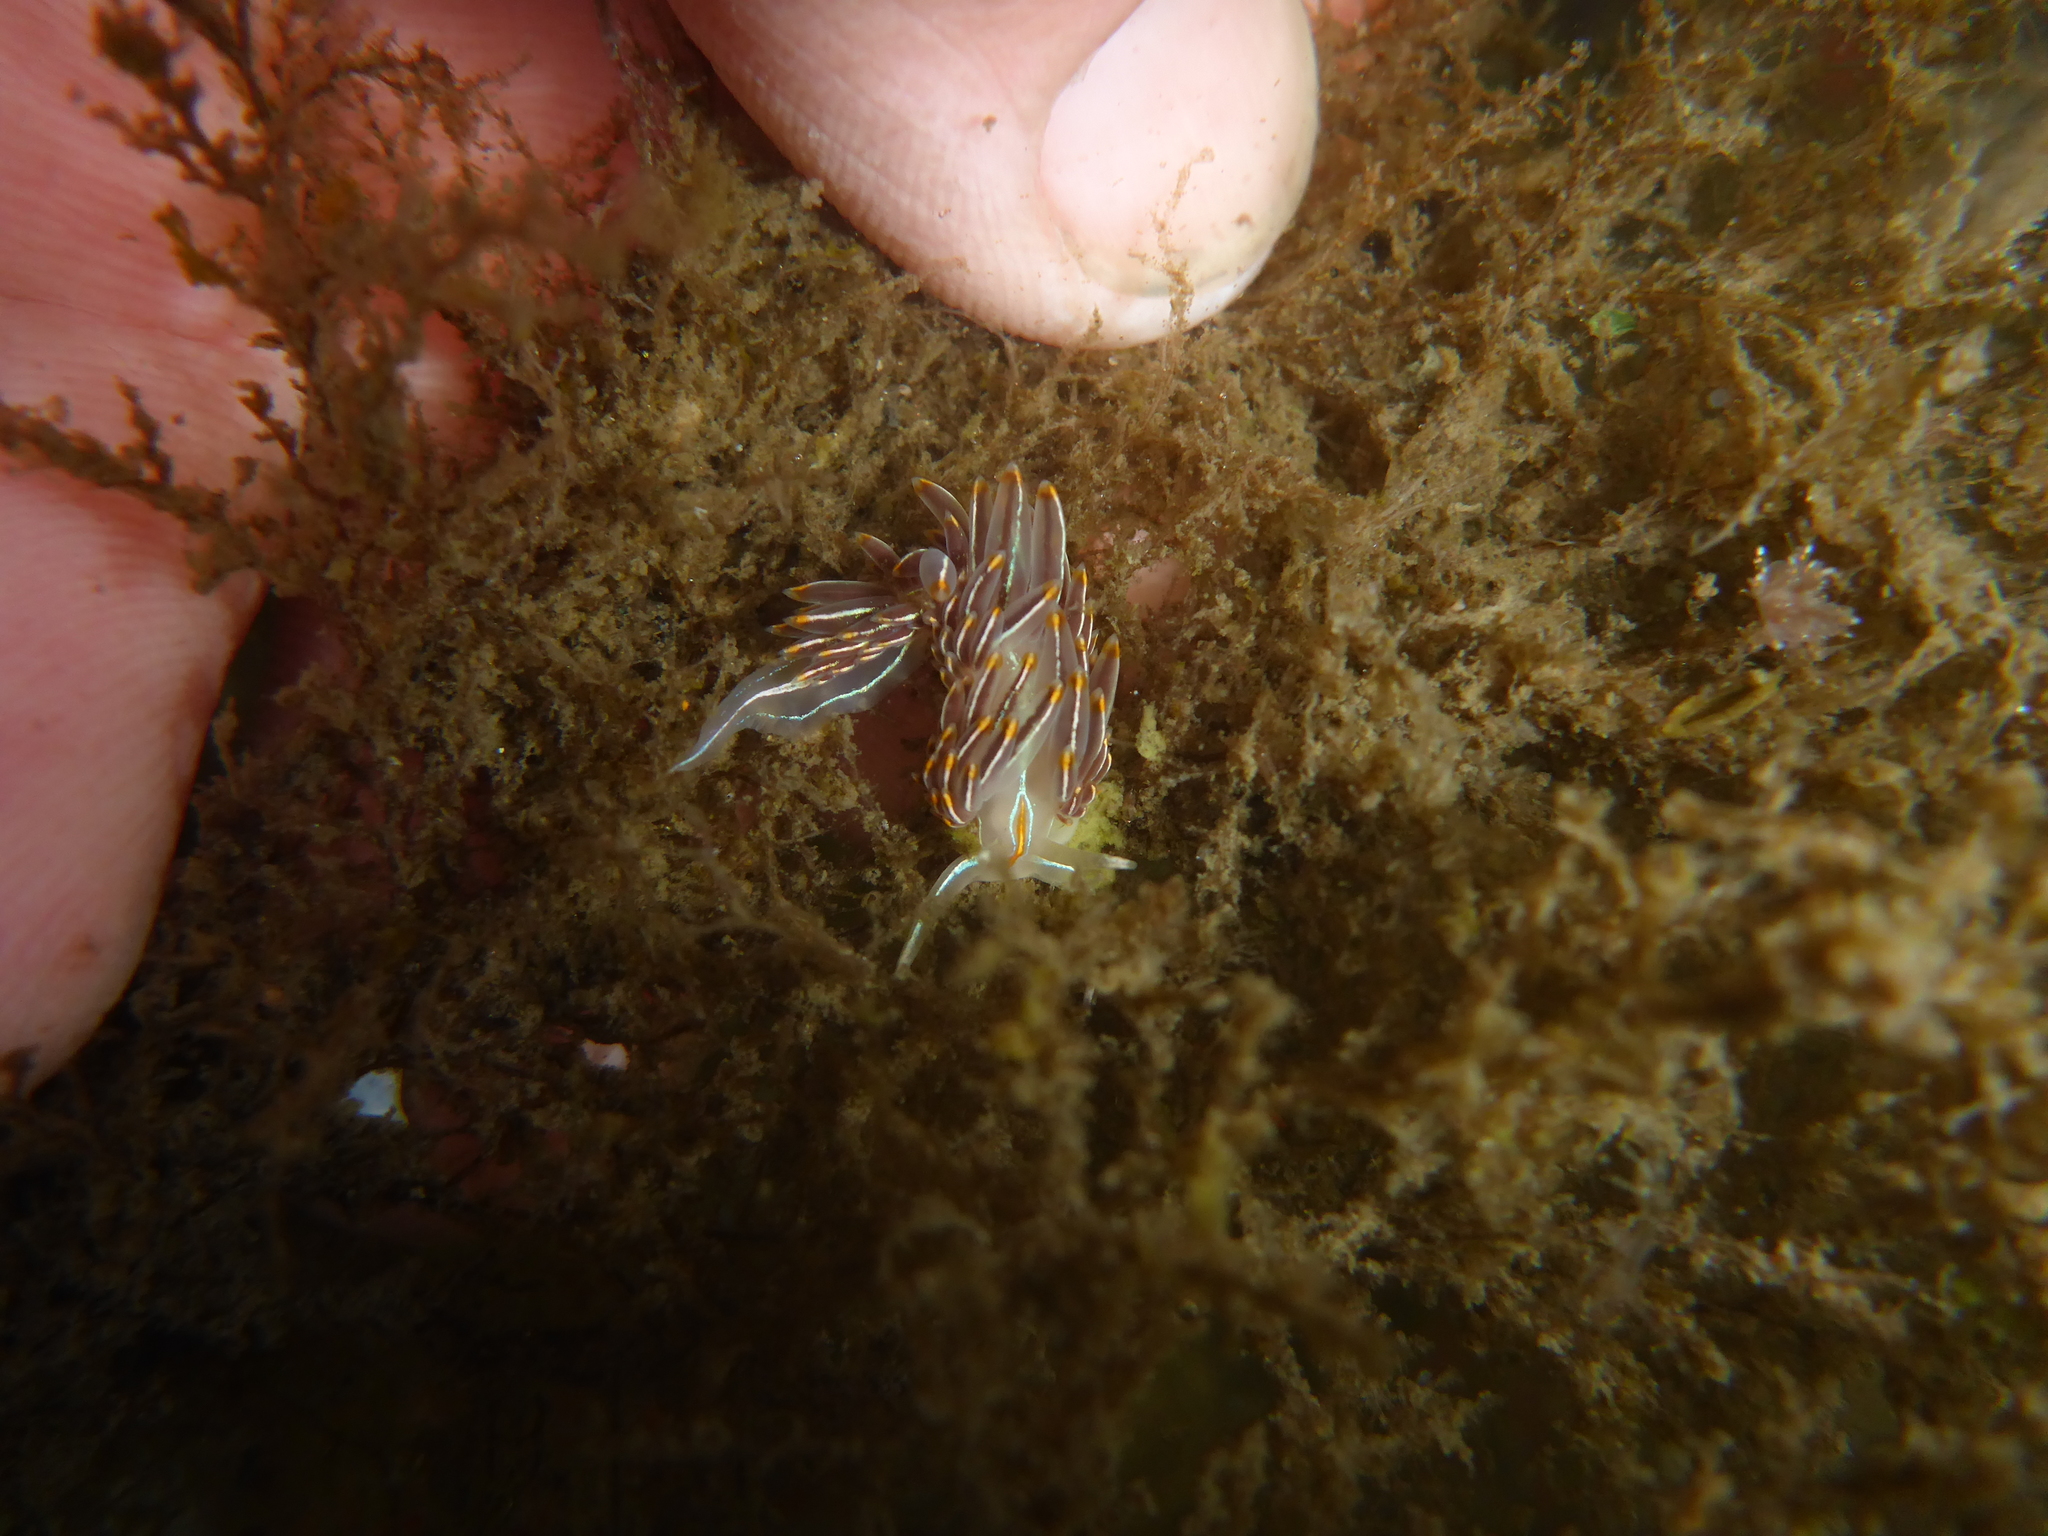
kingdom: Animalia
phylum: Mollusca
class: Gastropoda
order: Nudibranchia
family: Myrrhinidae
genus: Hermissenda
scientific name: Hermissenda crassicornis
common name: Hermissenda
